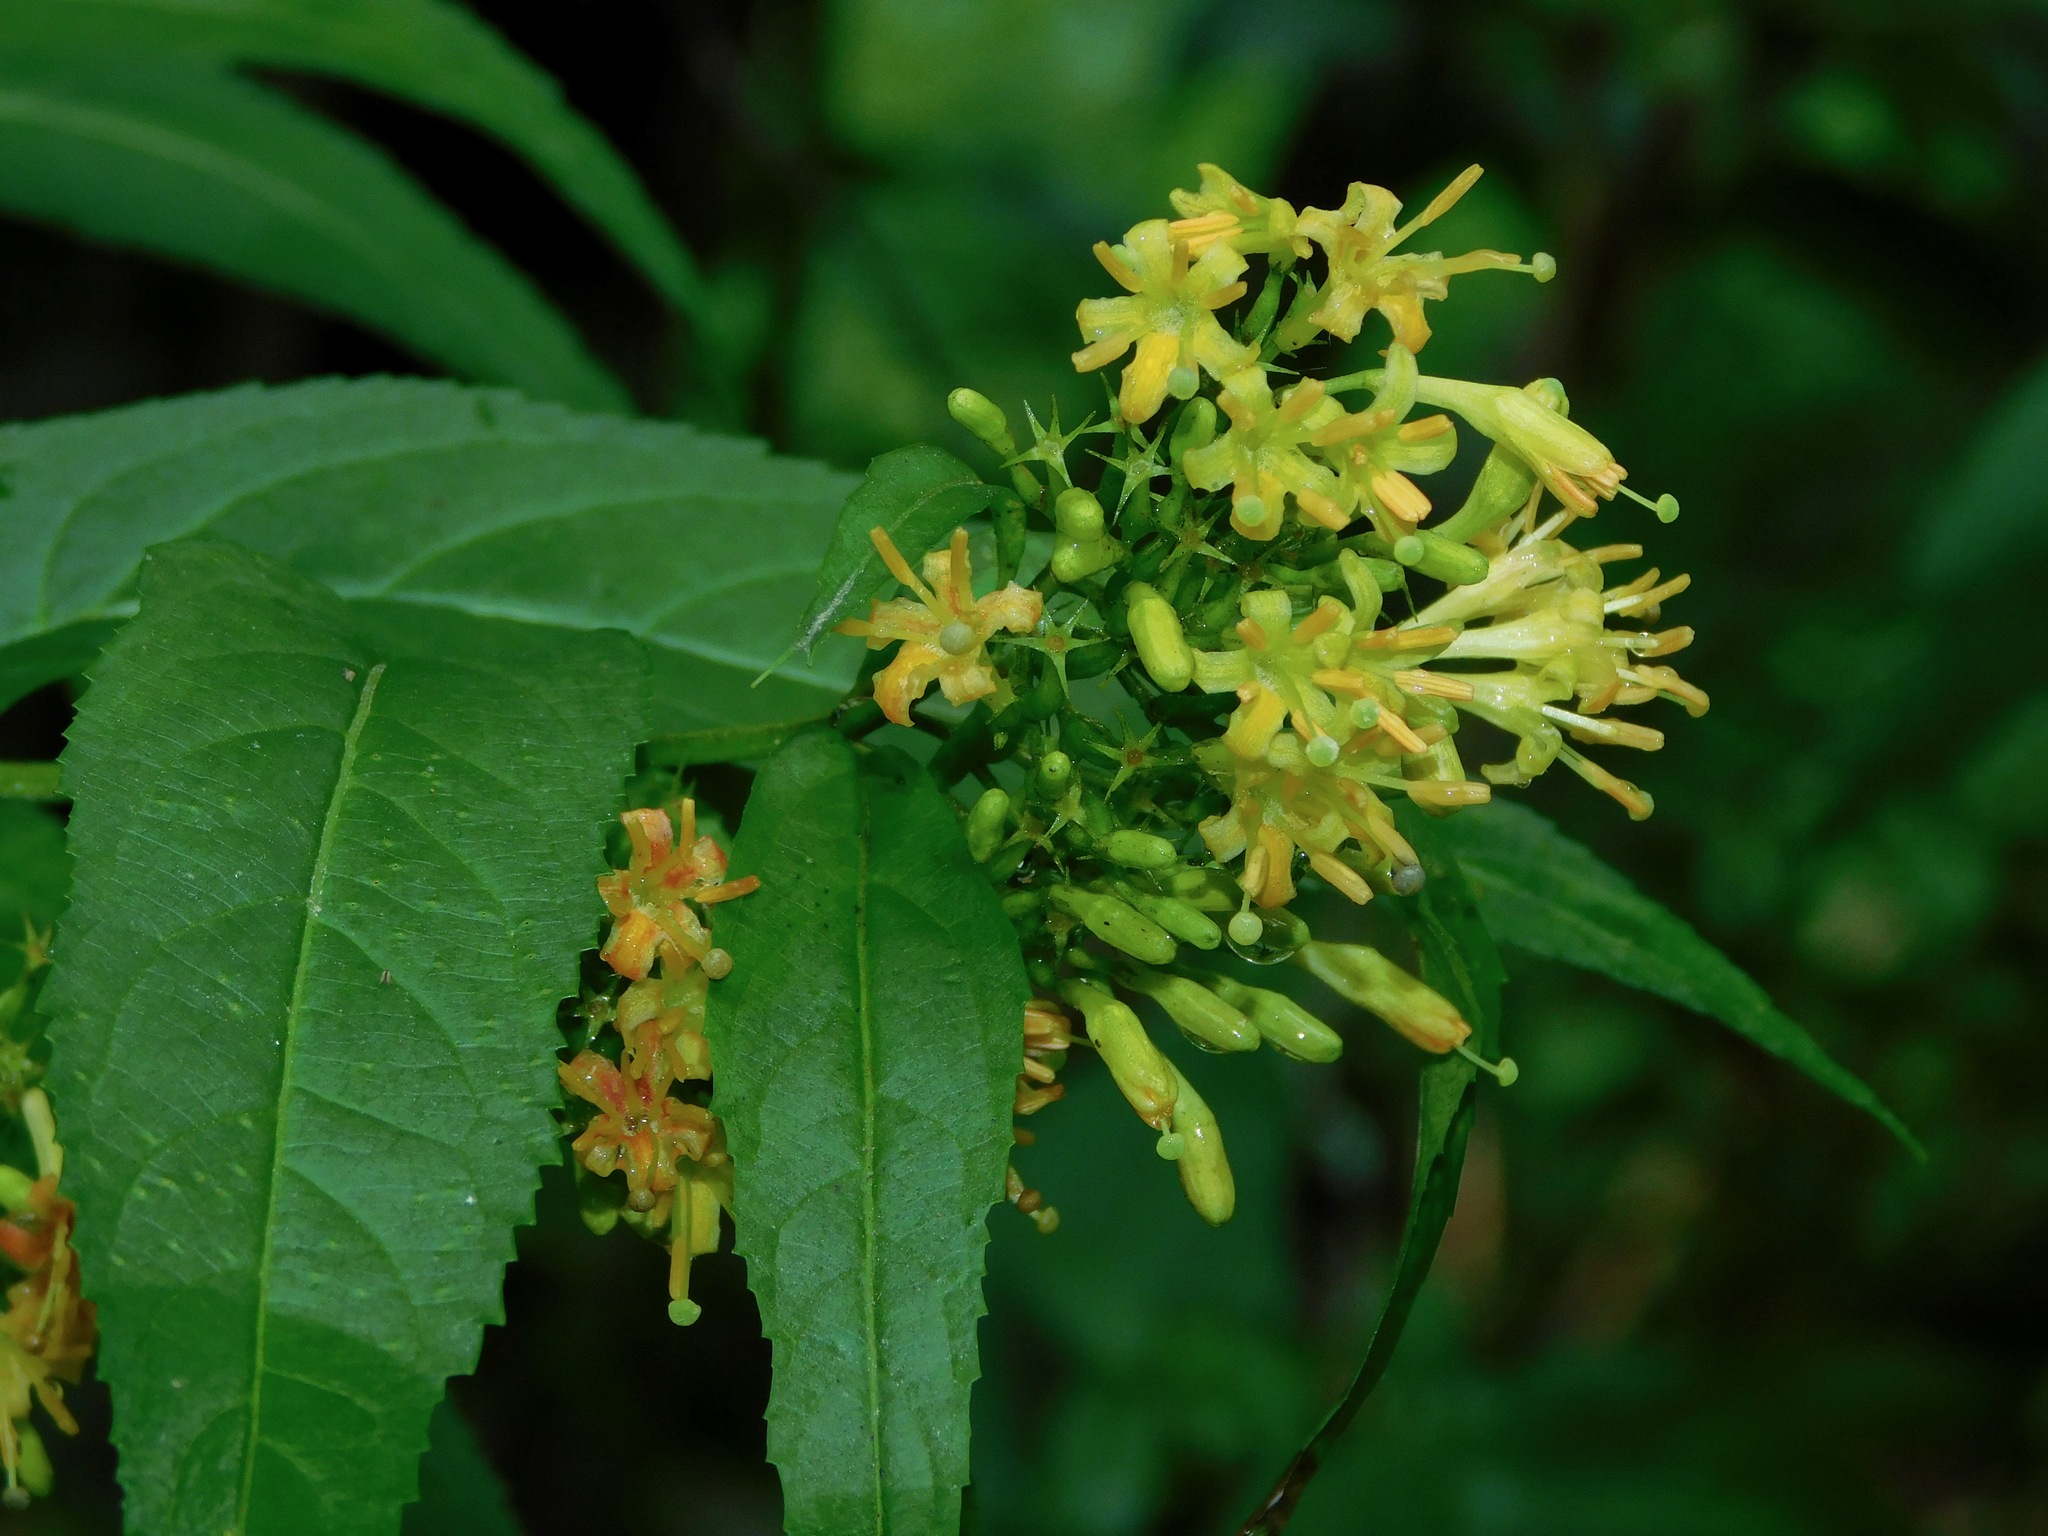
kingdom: Plantae
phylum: Tracheophyta
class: Magnoliopsida
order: Dipsacales
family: Caprifoliaceae
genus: Diervilla
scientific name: Diervilla sessilifolia
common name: Bush-honeysuckle
